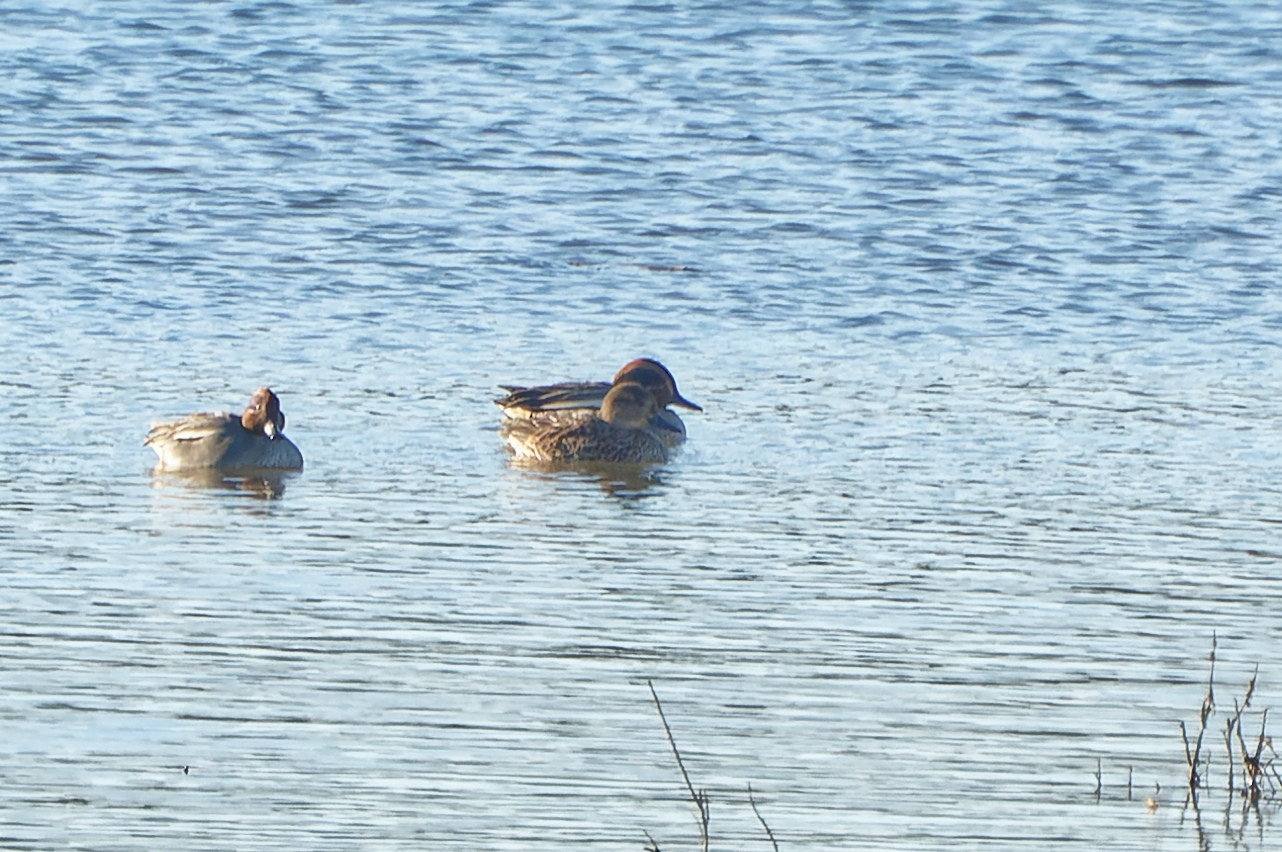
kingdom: Animalia
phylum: Chordata
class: Aves
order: Anseriformes
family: Anatidae
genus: Anas
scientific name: Anas crecca
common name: Eurasian teal
